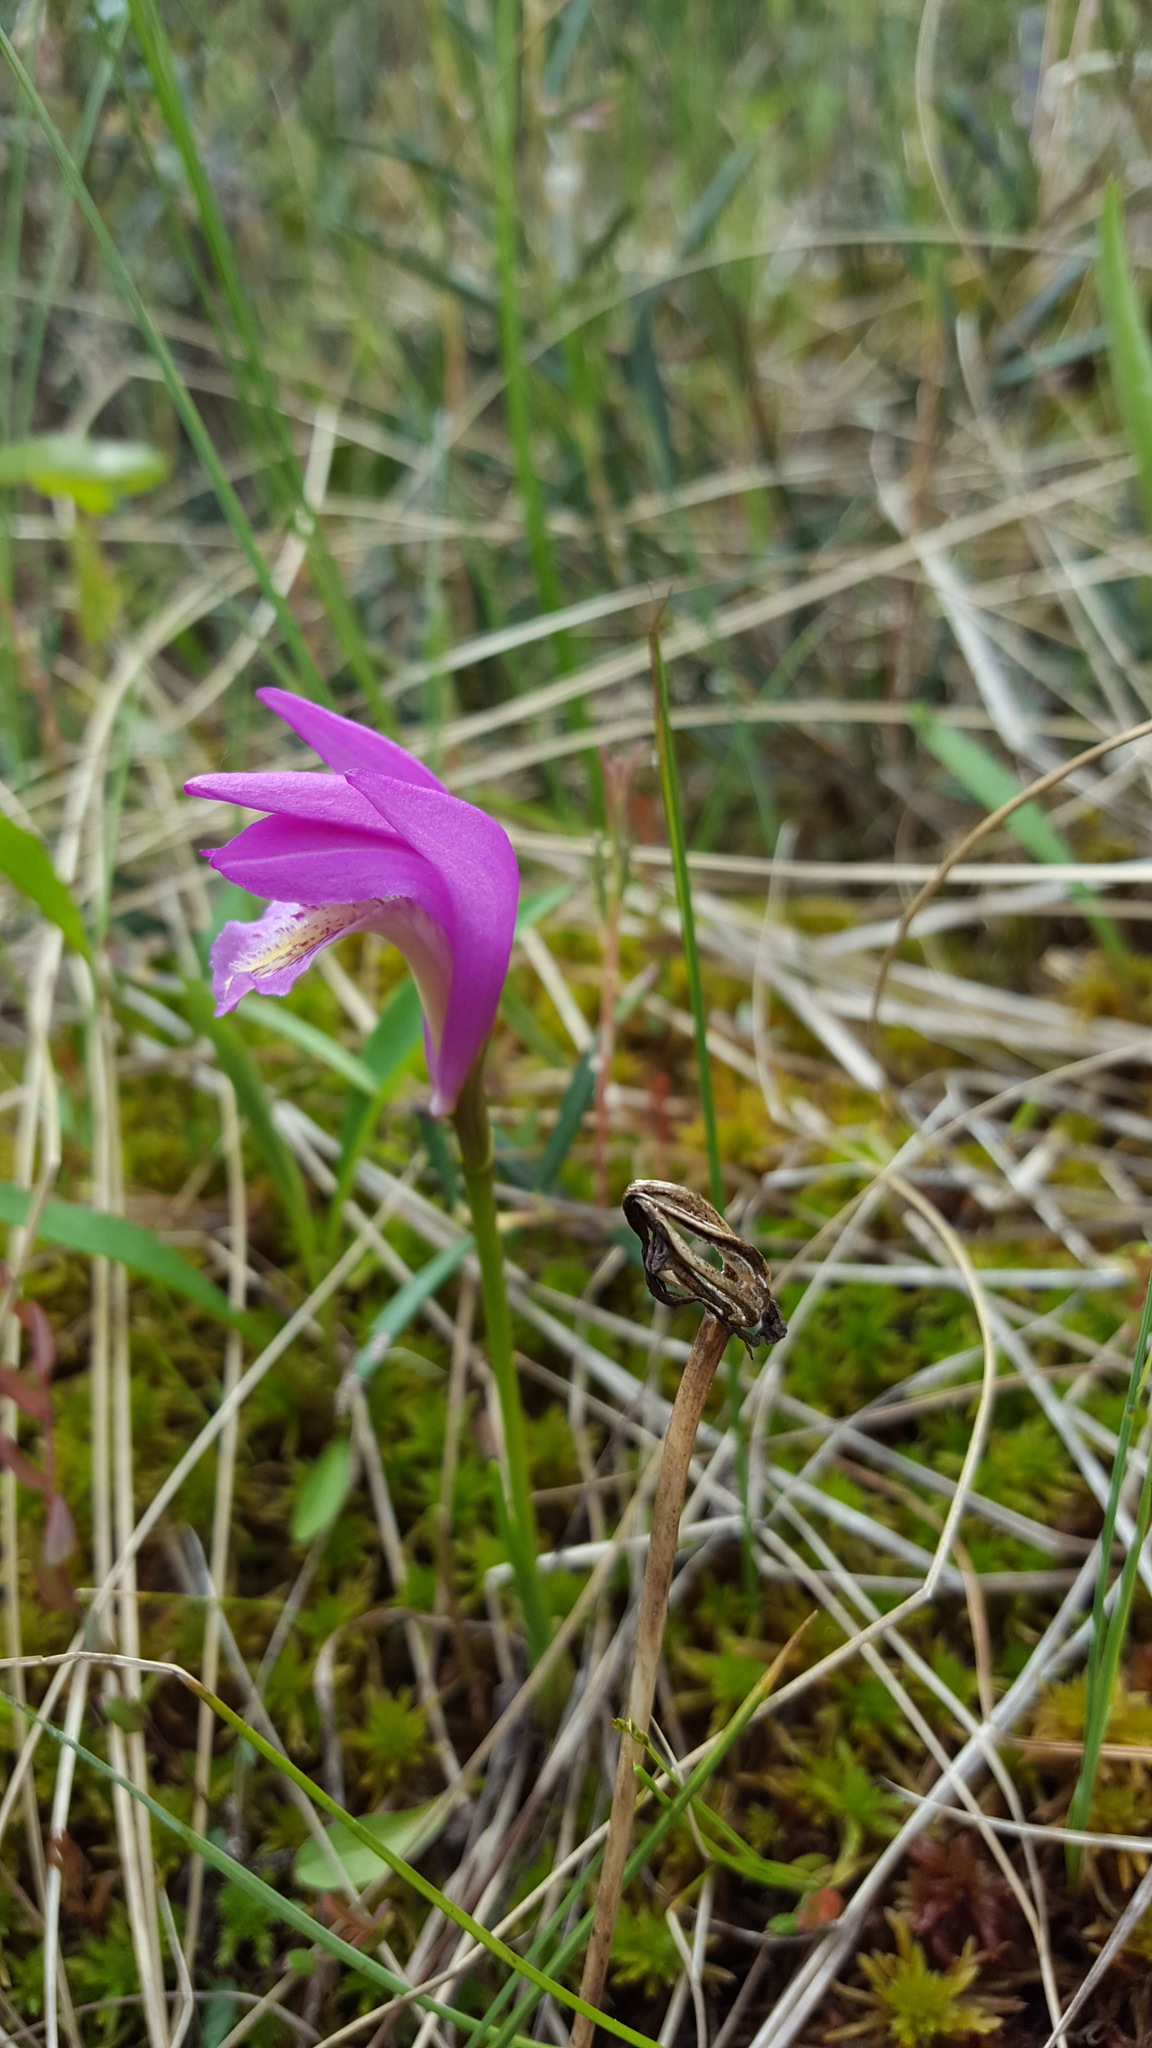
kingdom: Plantae
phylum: Tracheophyta
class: Liliopsida
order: Asparagales
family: Orchidaceae
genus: Arethusa
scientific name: Arethusa bulbosa
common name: Arethusa
